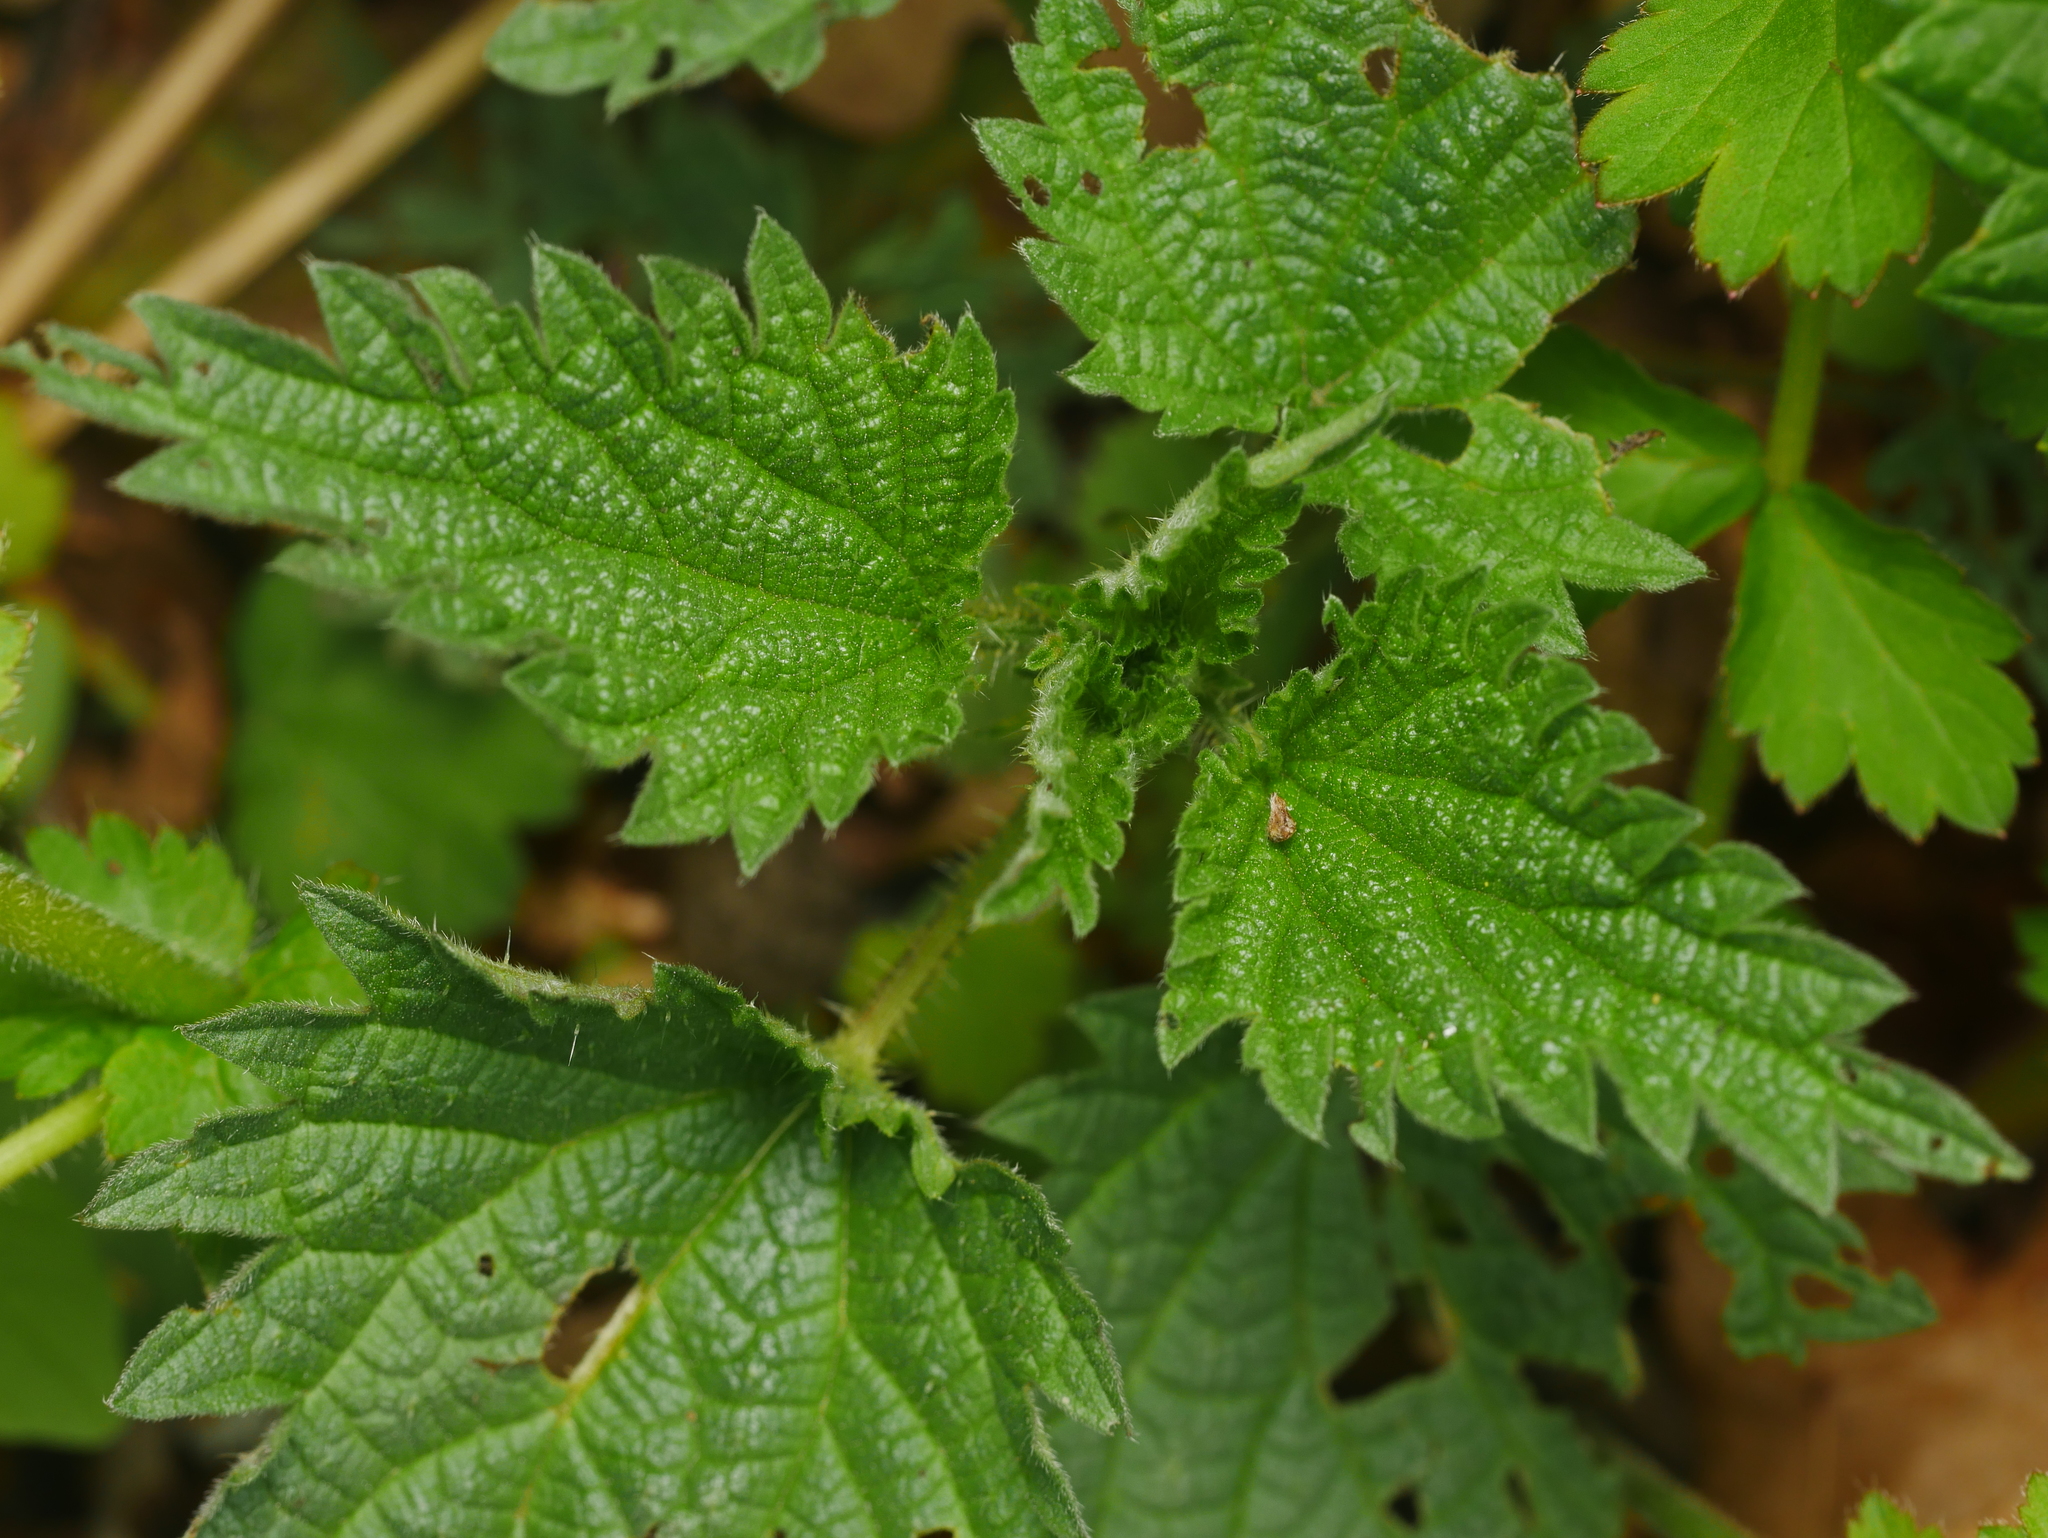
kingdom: Plantae
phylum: Tracheophyta
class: Magnoliopsida
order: Rosales
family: Urticaceae
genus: Urtica
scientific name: Urtica dioica
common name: Common nettle
